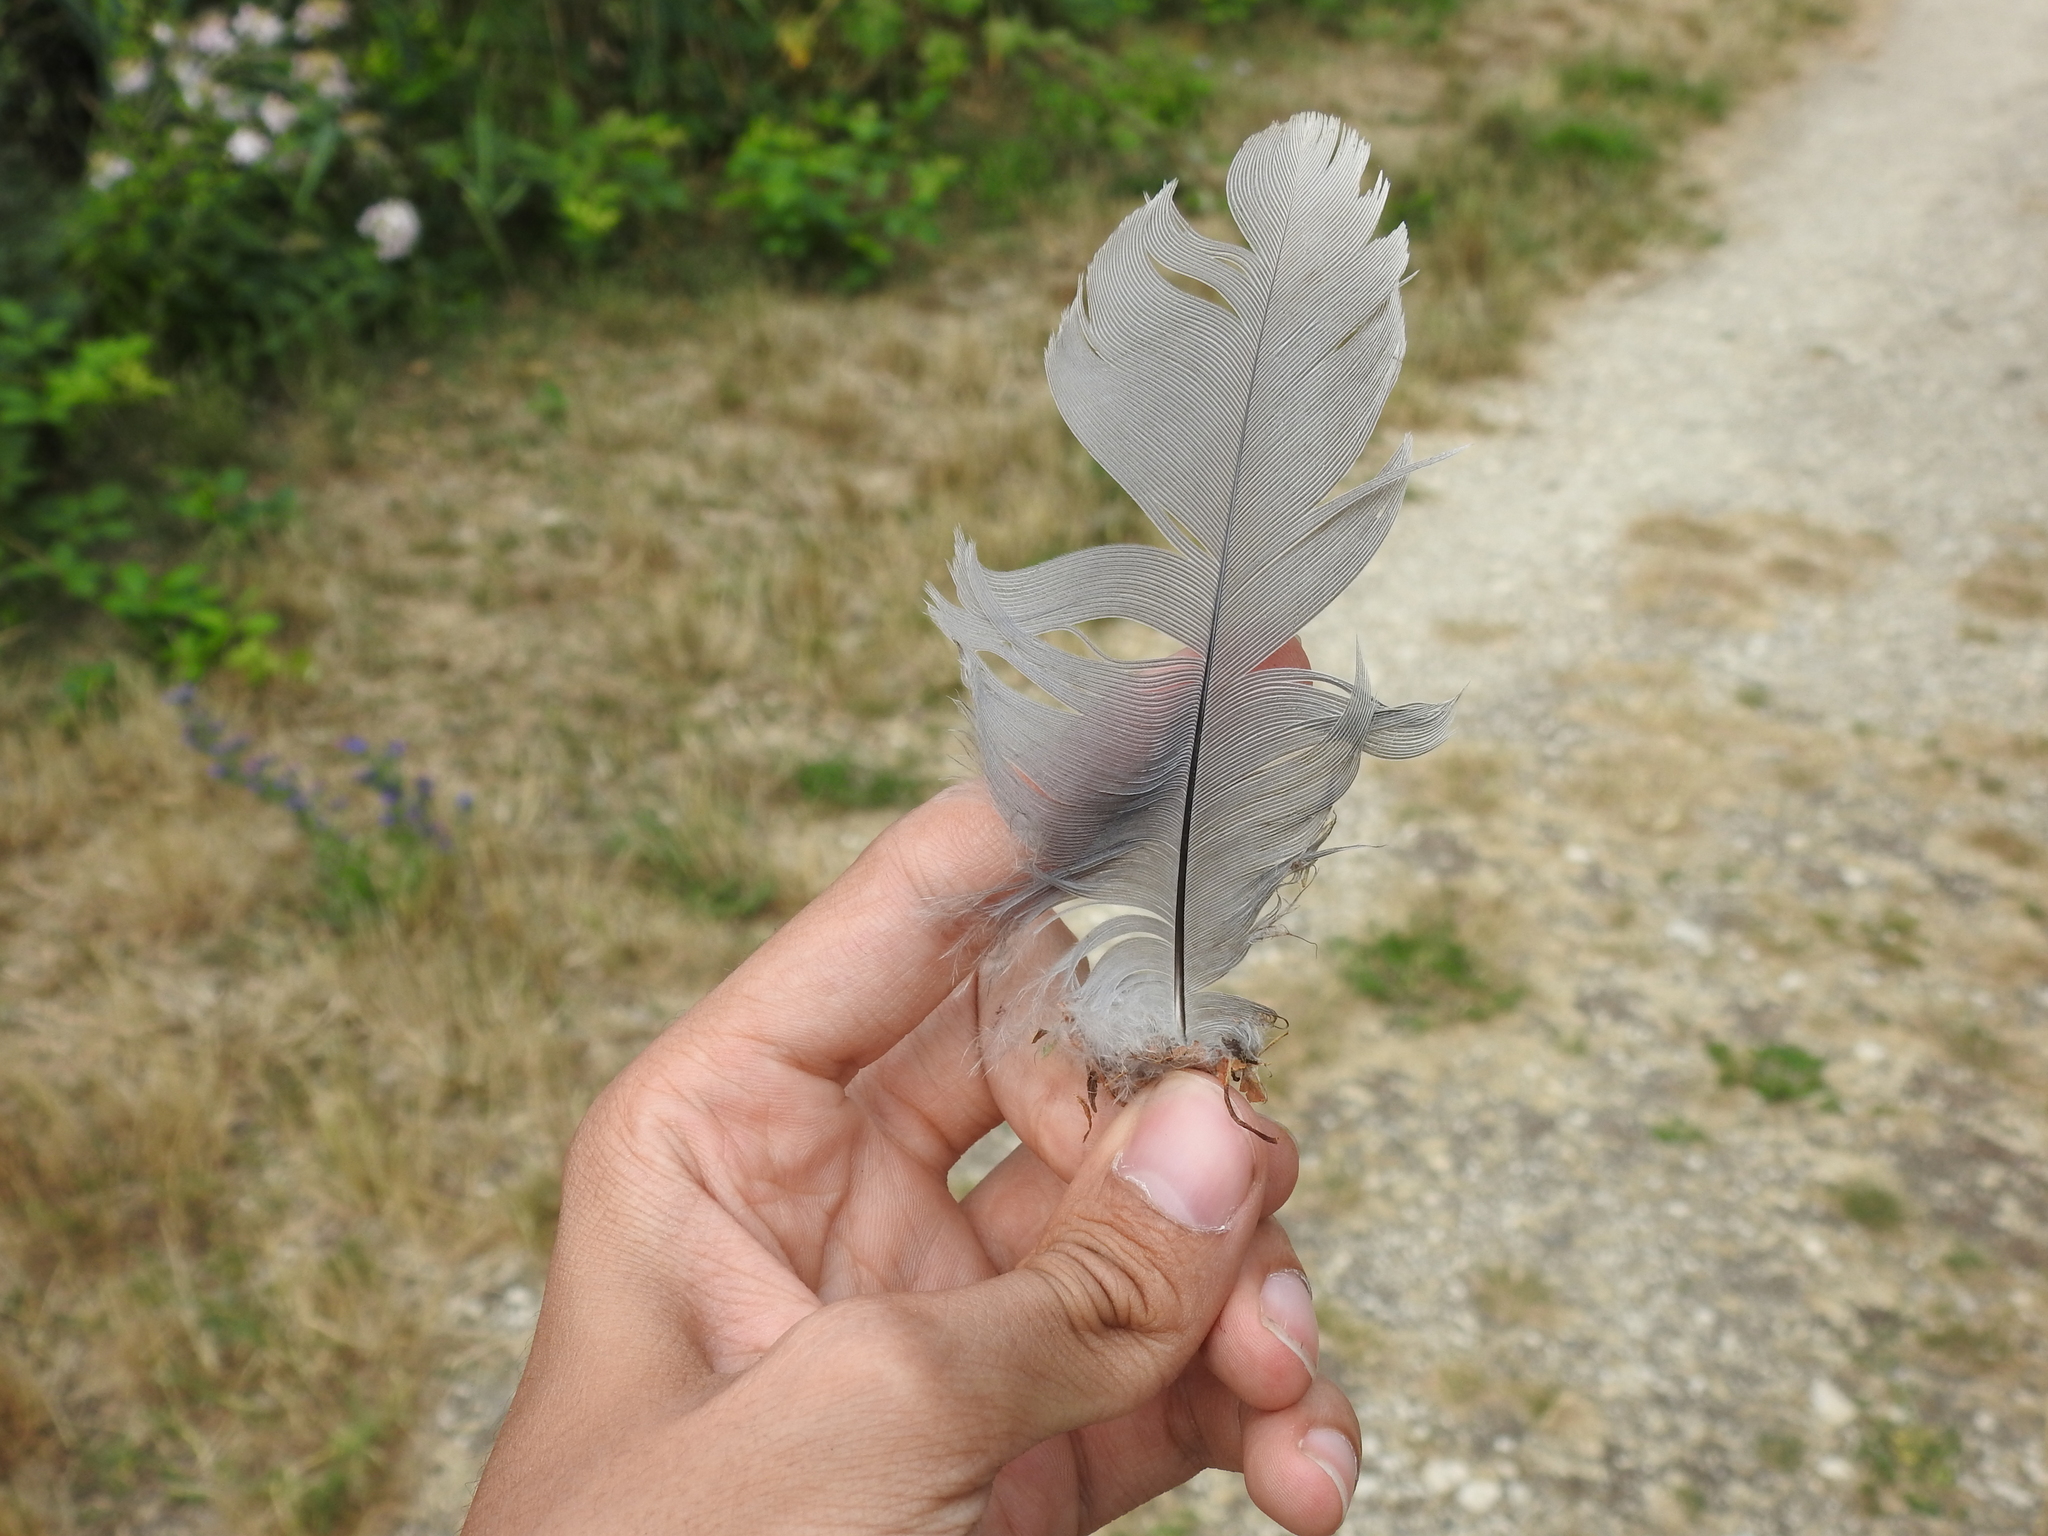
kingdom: Animalia
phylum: Chordata
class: Aves
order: Pelecaniformes
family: Ardeidae
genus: Ardea
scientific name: Ardea cinerea
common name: Grey heron
